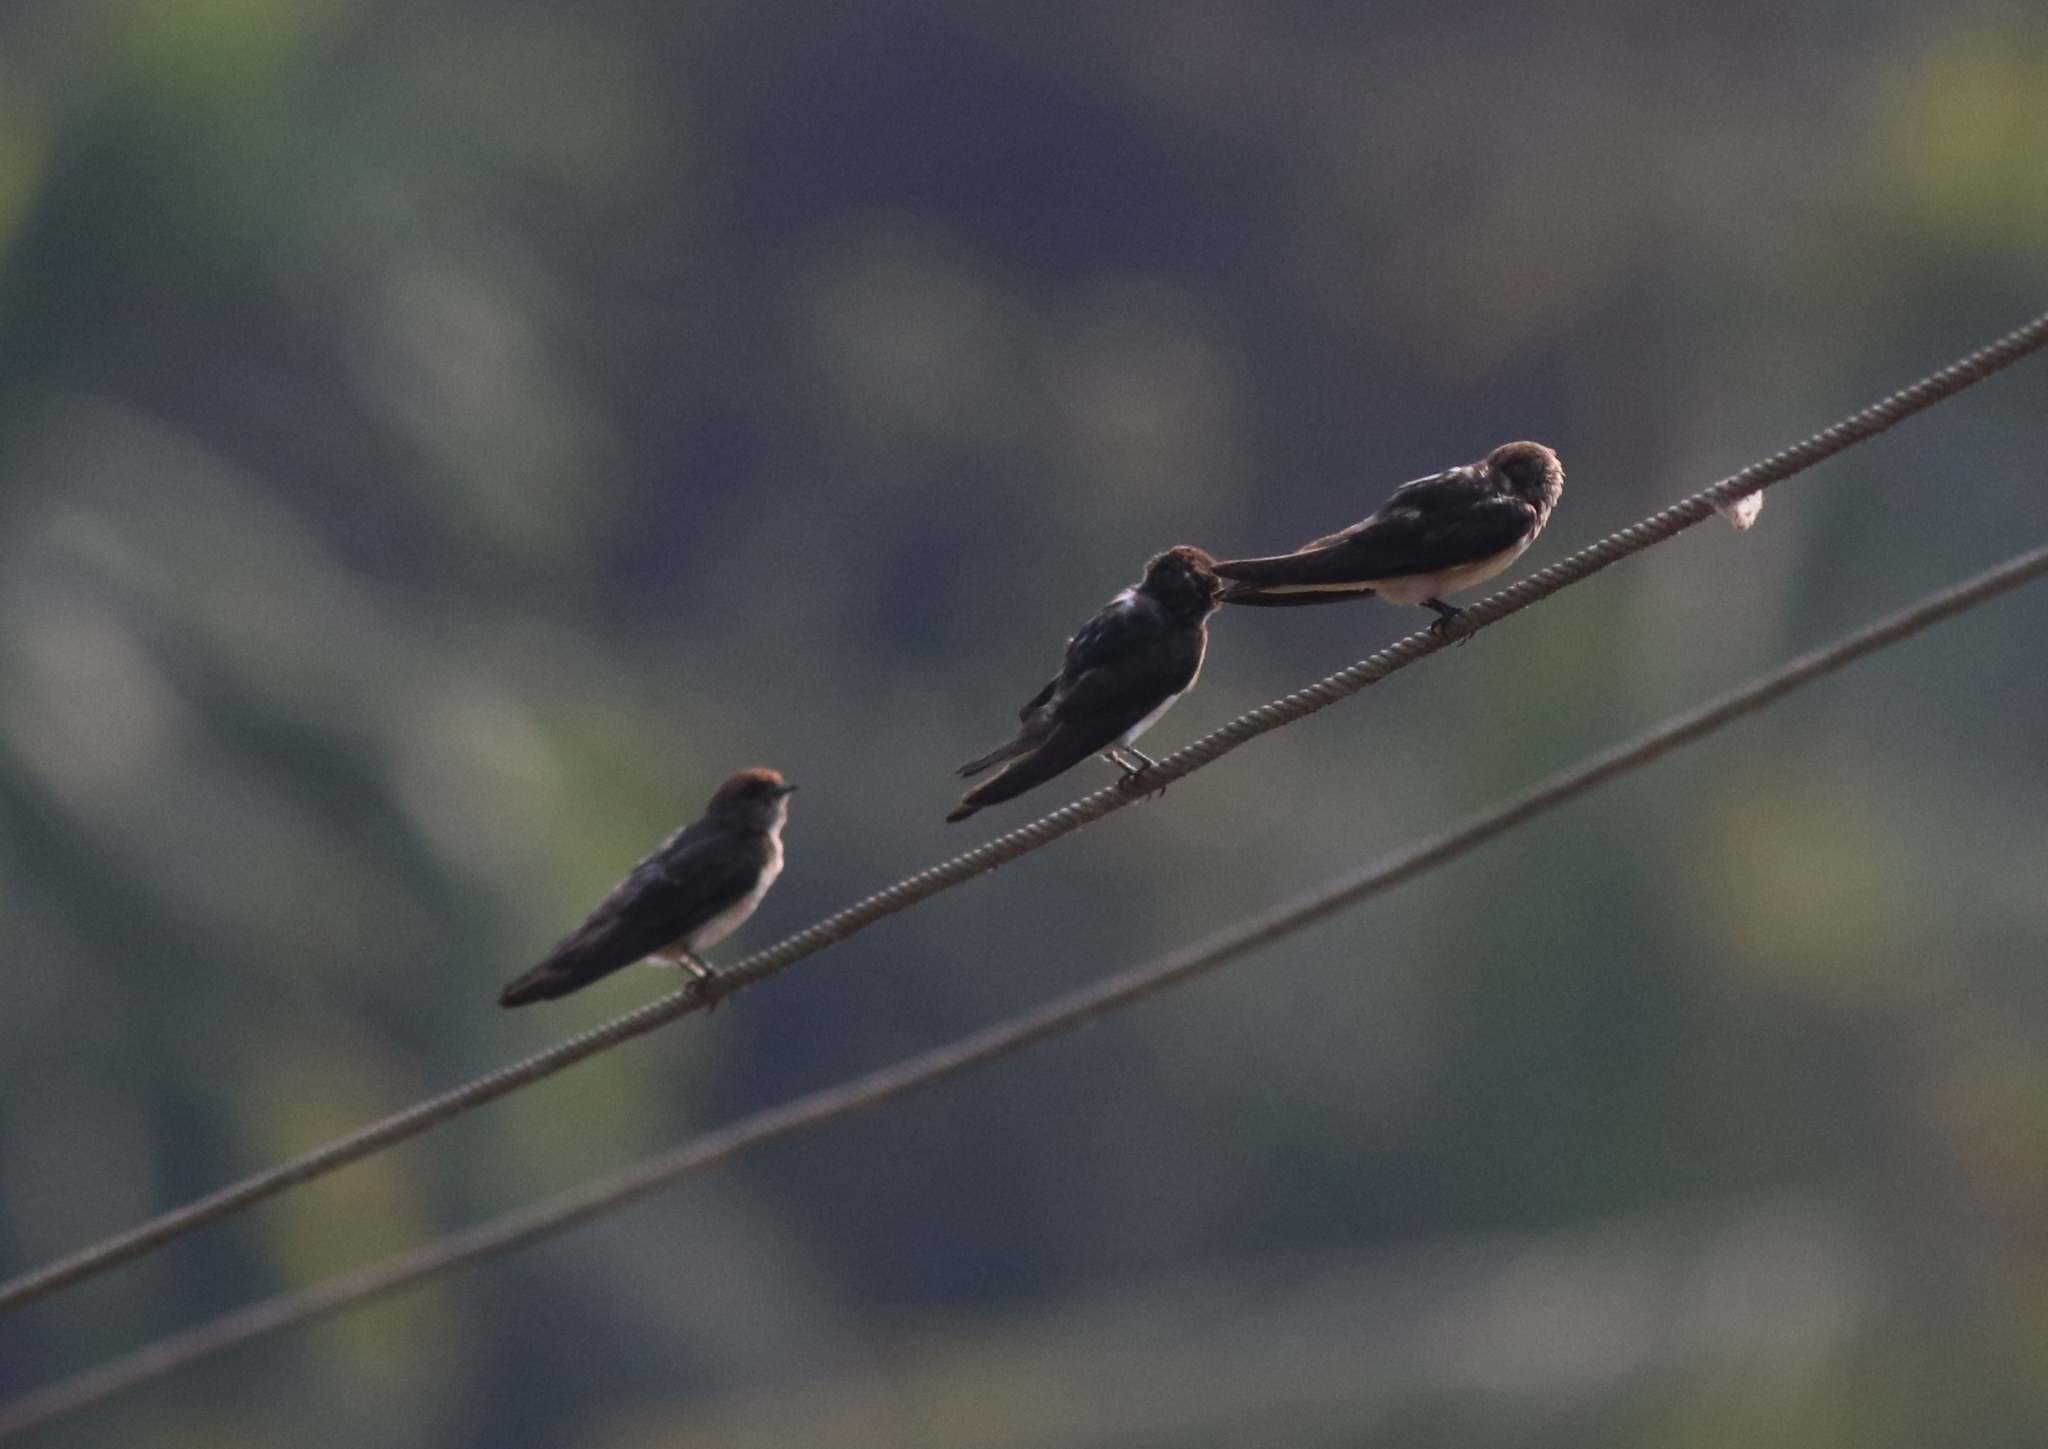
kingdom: Animalia
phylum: Chordata
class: Aves
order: Passeriformes
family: Hirundinidae
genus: Petrochelidon
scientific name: Petrochelidon fluvicola
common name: Streak-throated swallow
